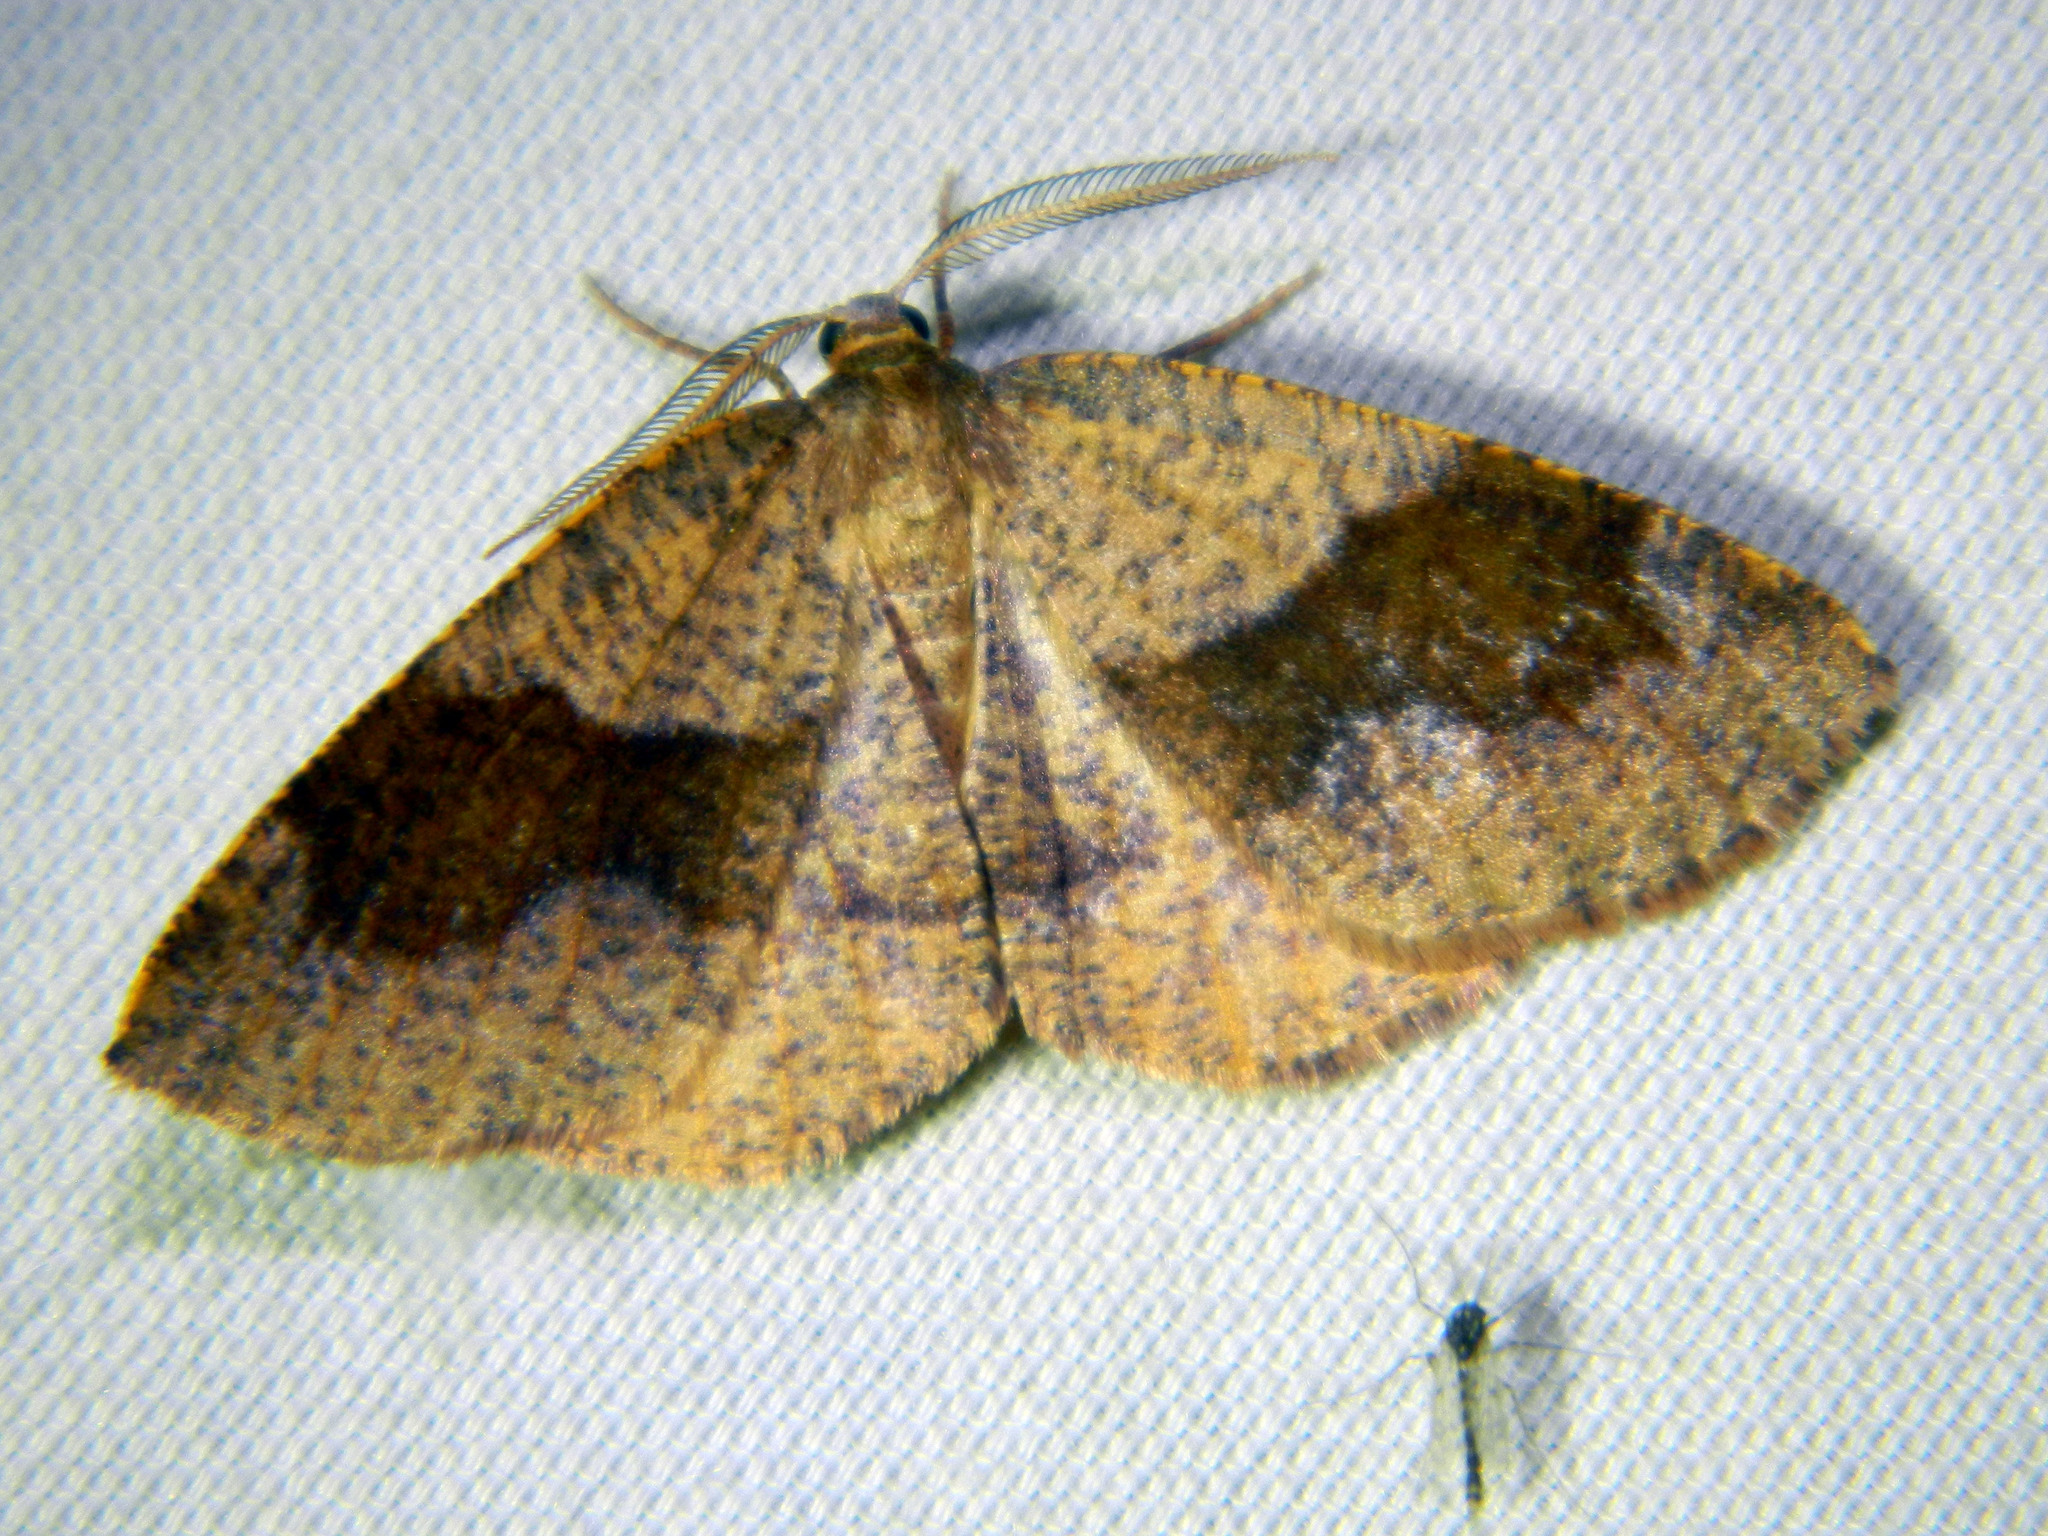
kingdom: Animalia
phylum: Arthropoda
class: Insecta
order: Lepidoptera
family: Geometridae
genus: Plagodis
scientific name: Plagodis pulveraria
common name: Barred umber
